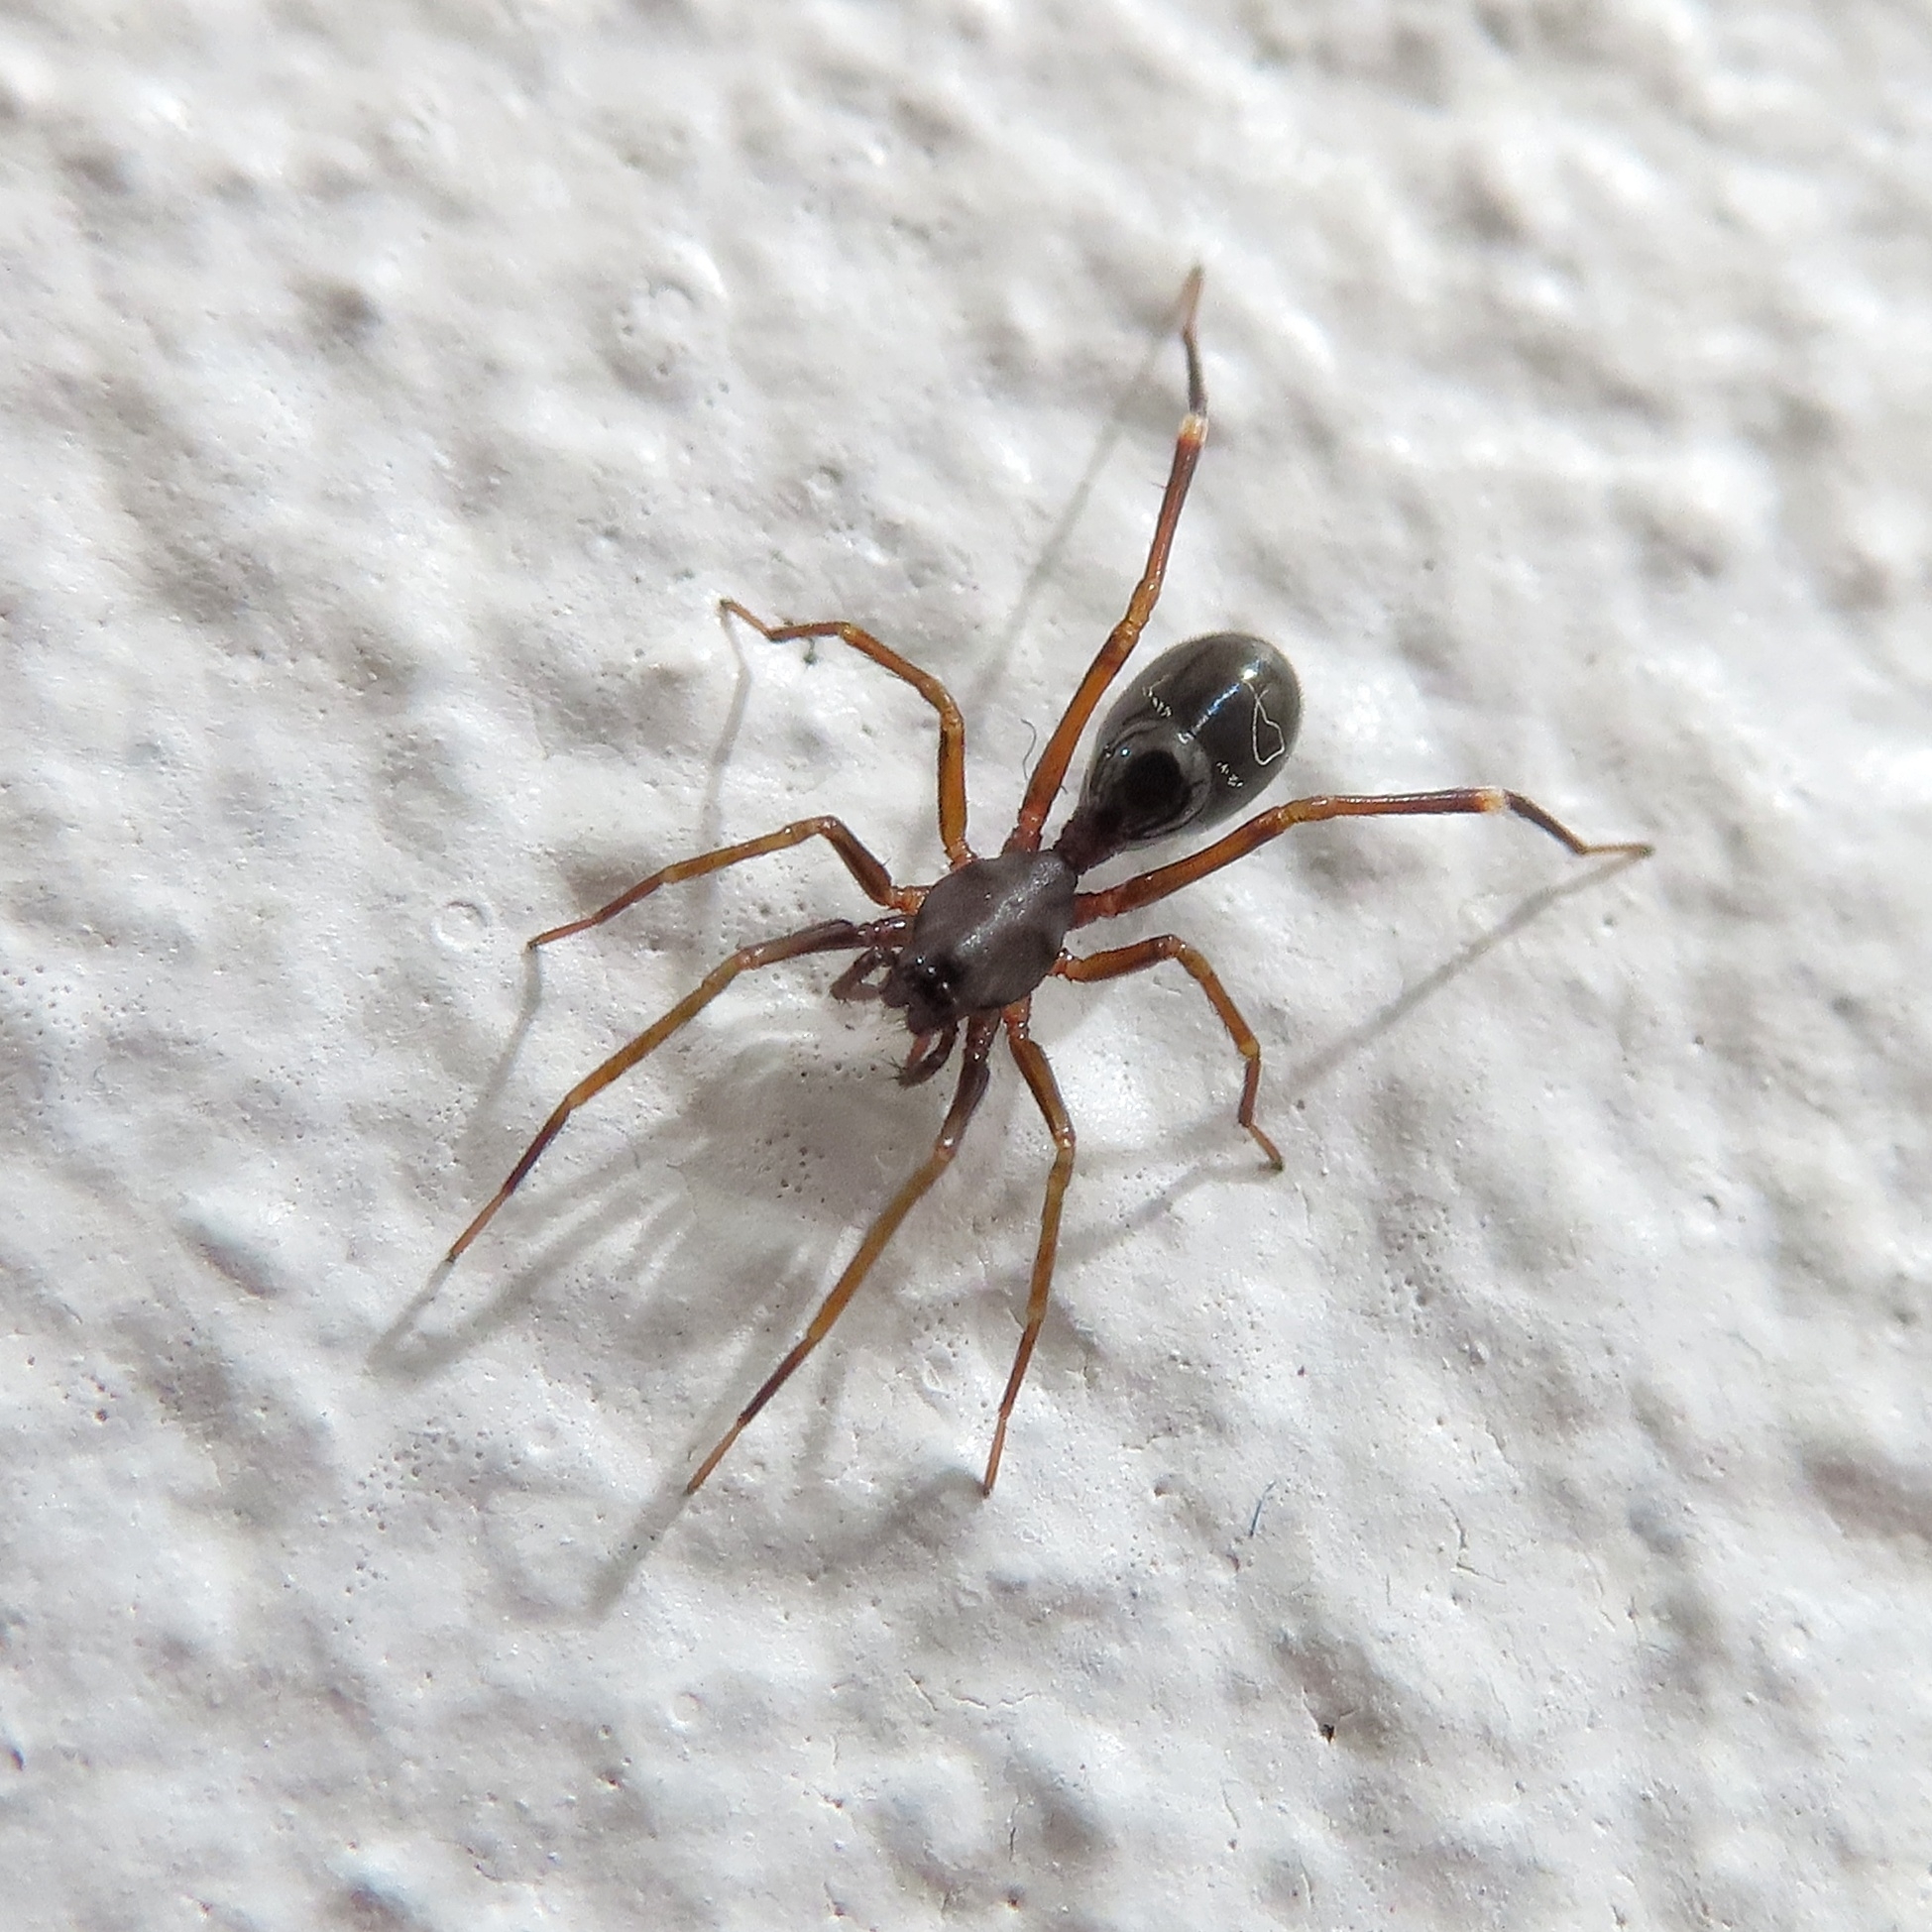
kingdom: Animalia
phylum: Arthropoda
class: Arachnida
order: Araneae
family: Corinnidae
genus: Mazax
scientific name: Mazax spinosa
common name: Corinnid sac spiders
